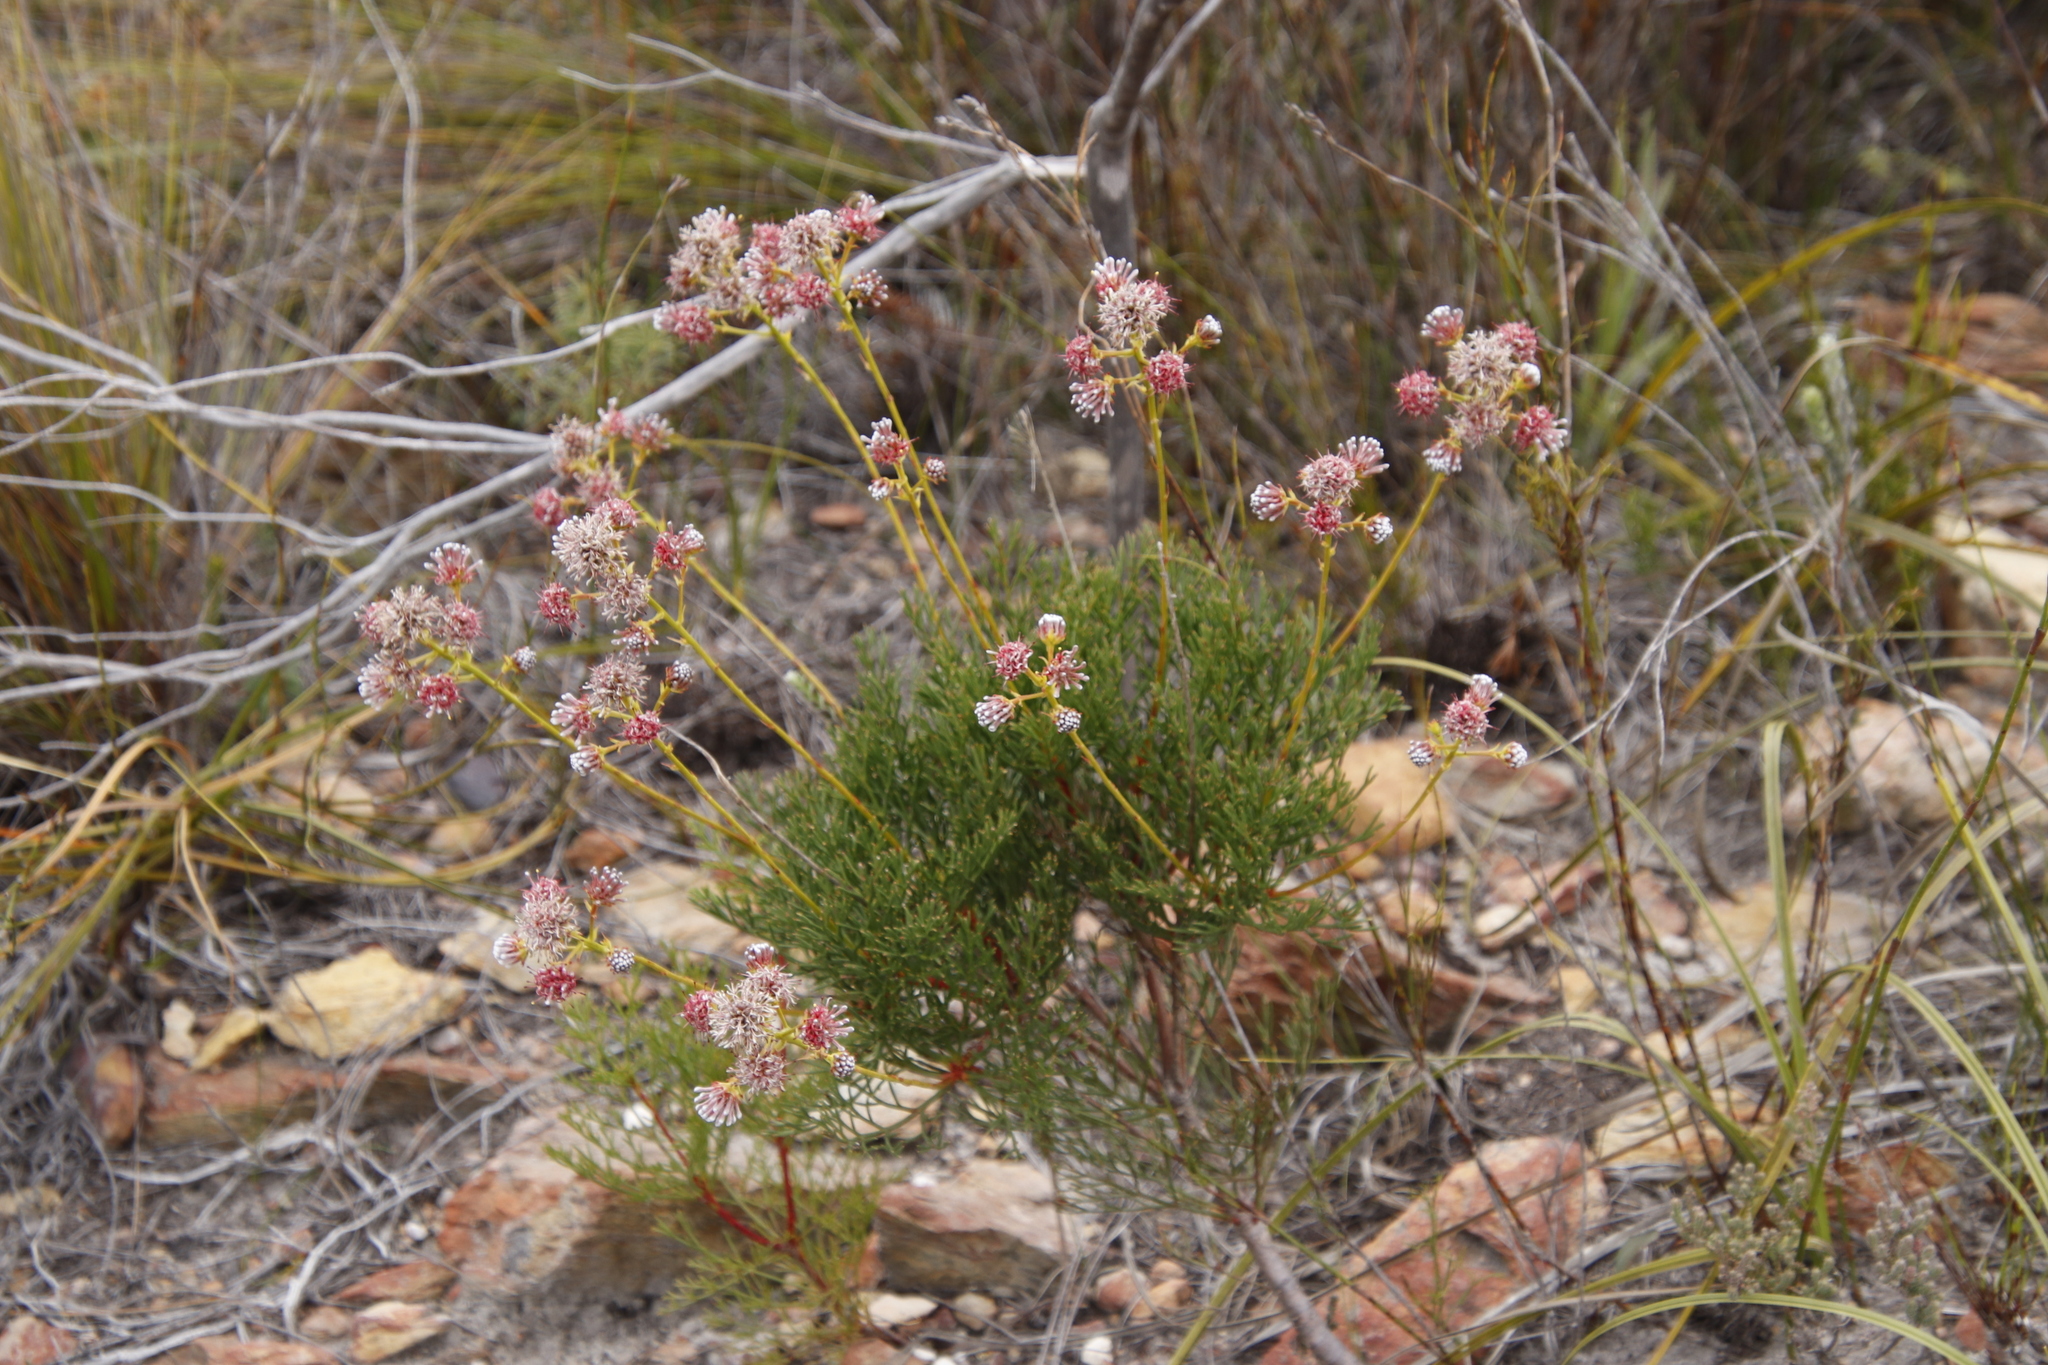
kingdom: Plantae
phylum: Tracheophyta
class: Magnoliopsida
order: Proteales
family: Proteaceae
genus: Serruria
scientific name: Serruria elongata
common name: Long-stalk spiderhead
